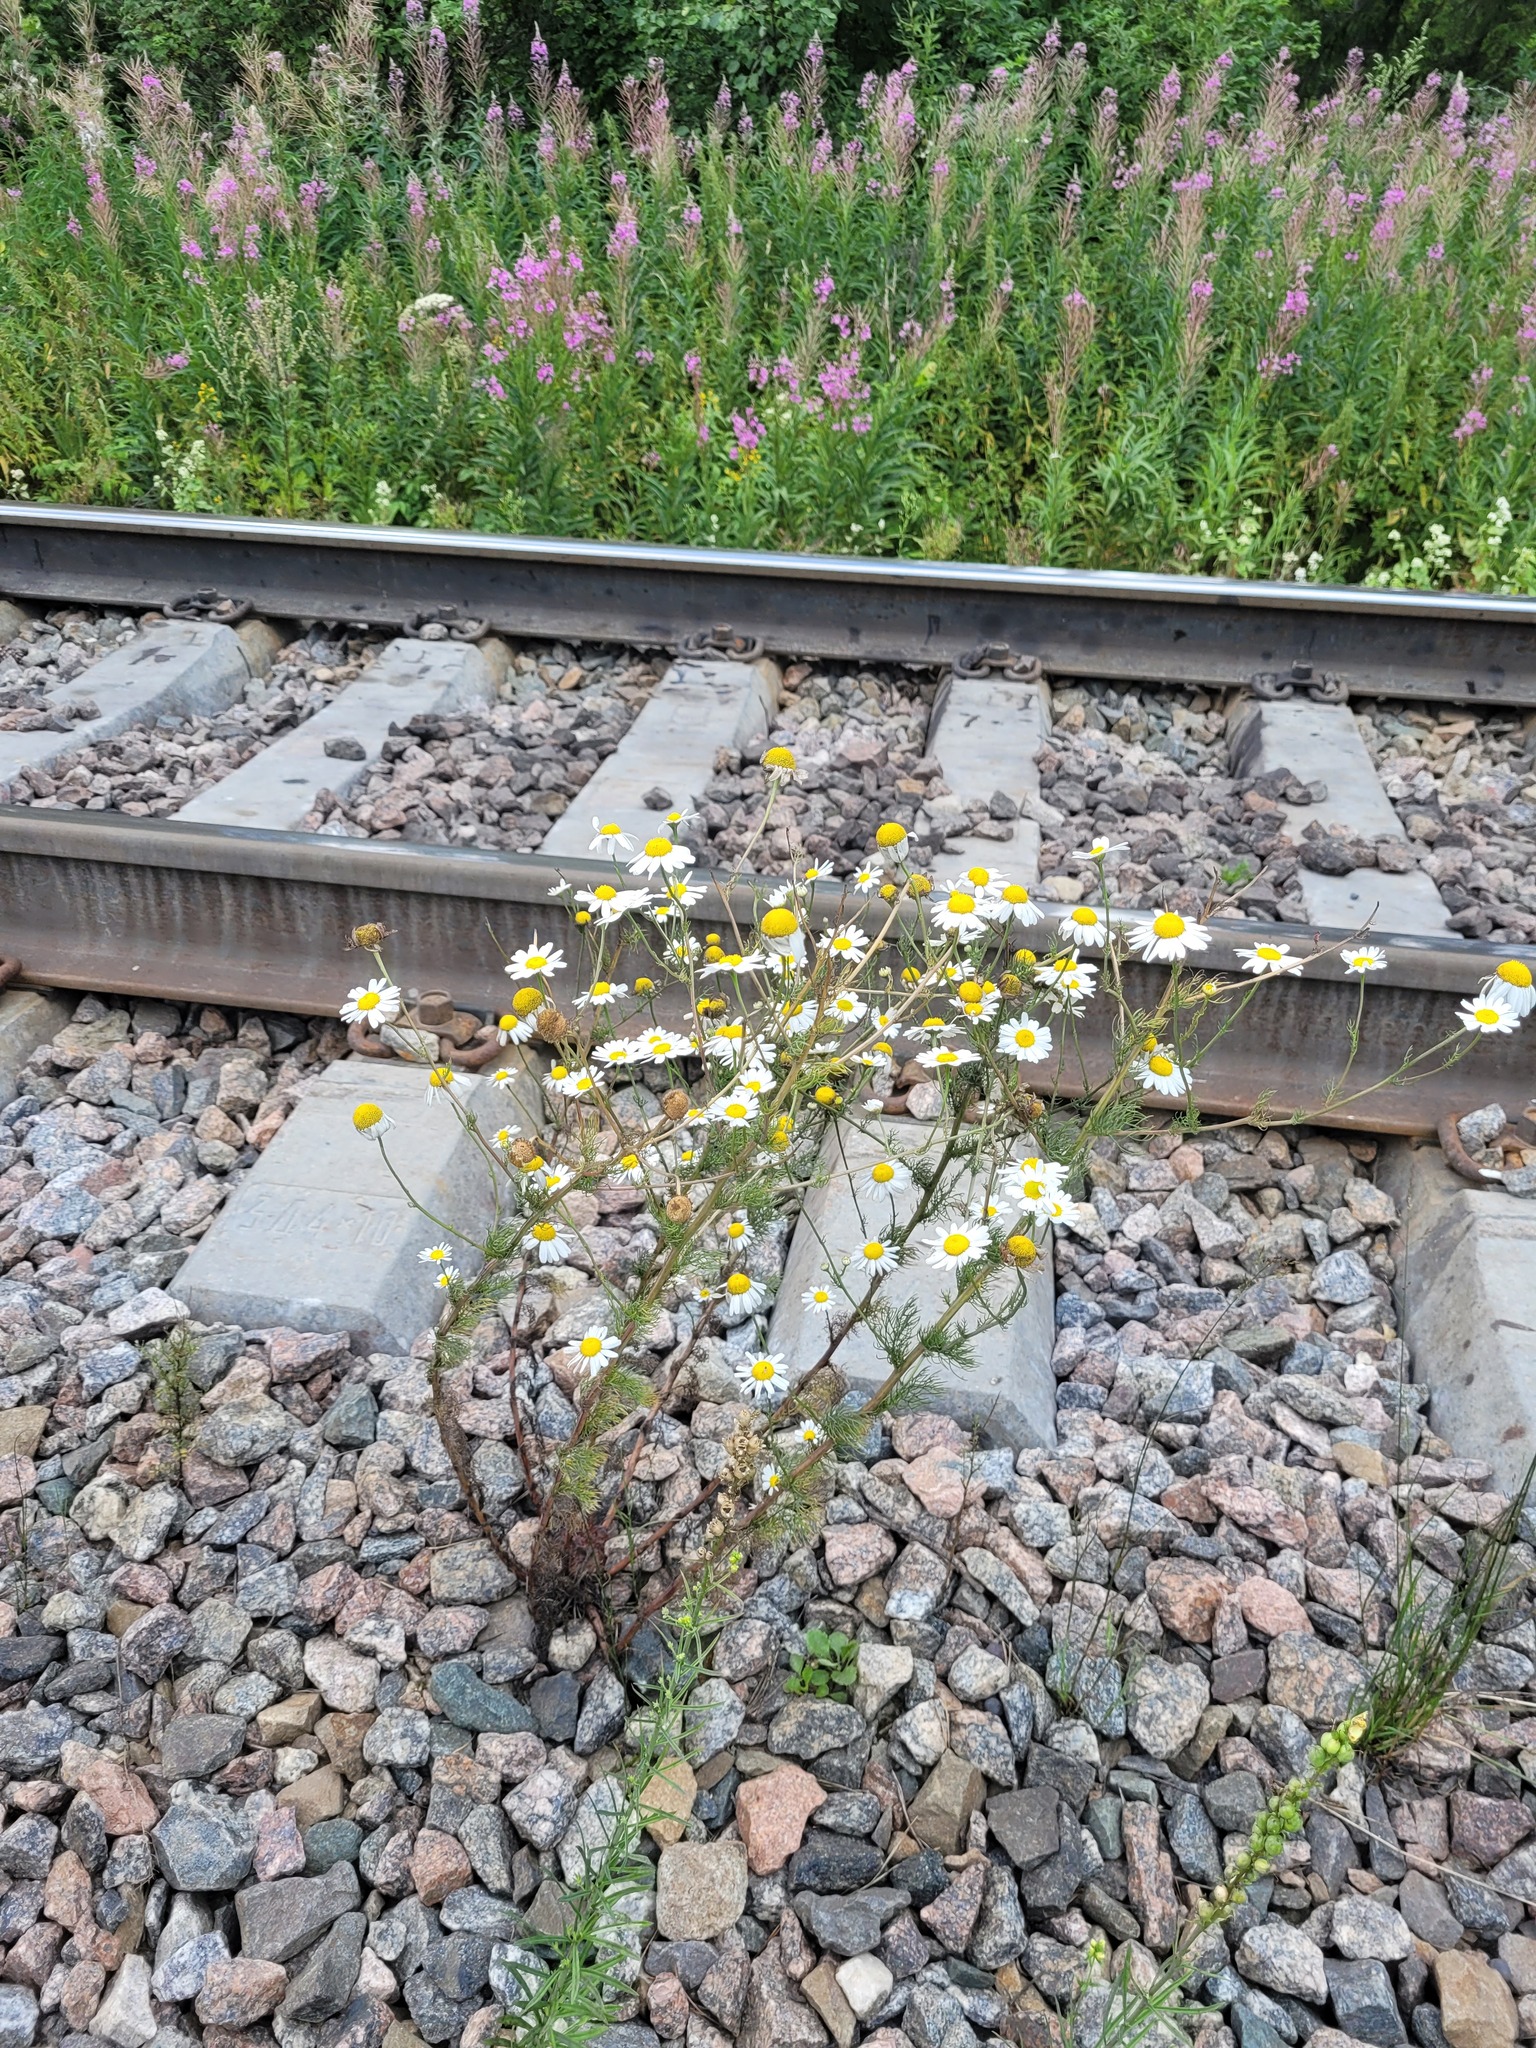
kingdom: Plantae
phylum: Tracheophyta
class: Magnoliopsida
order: Asterales
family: Asteraceae
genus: Tripleurospermum
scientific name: Tripleurospermum inodorum
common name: Scentless mayweed
